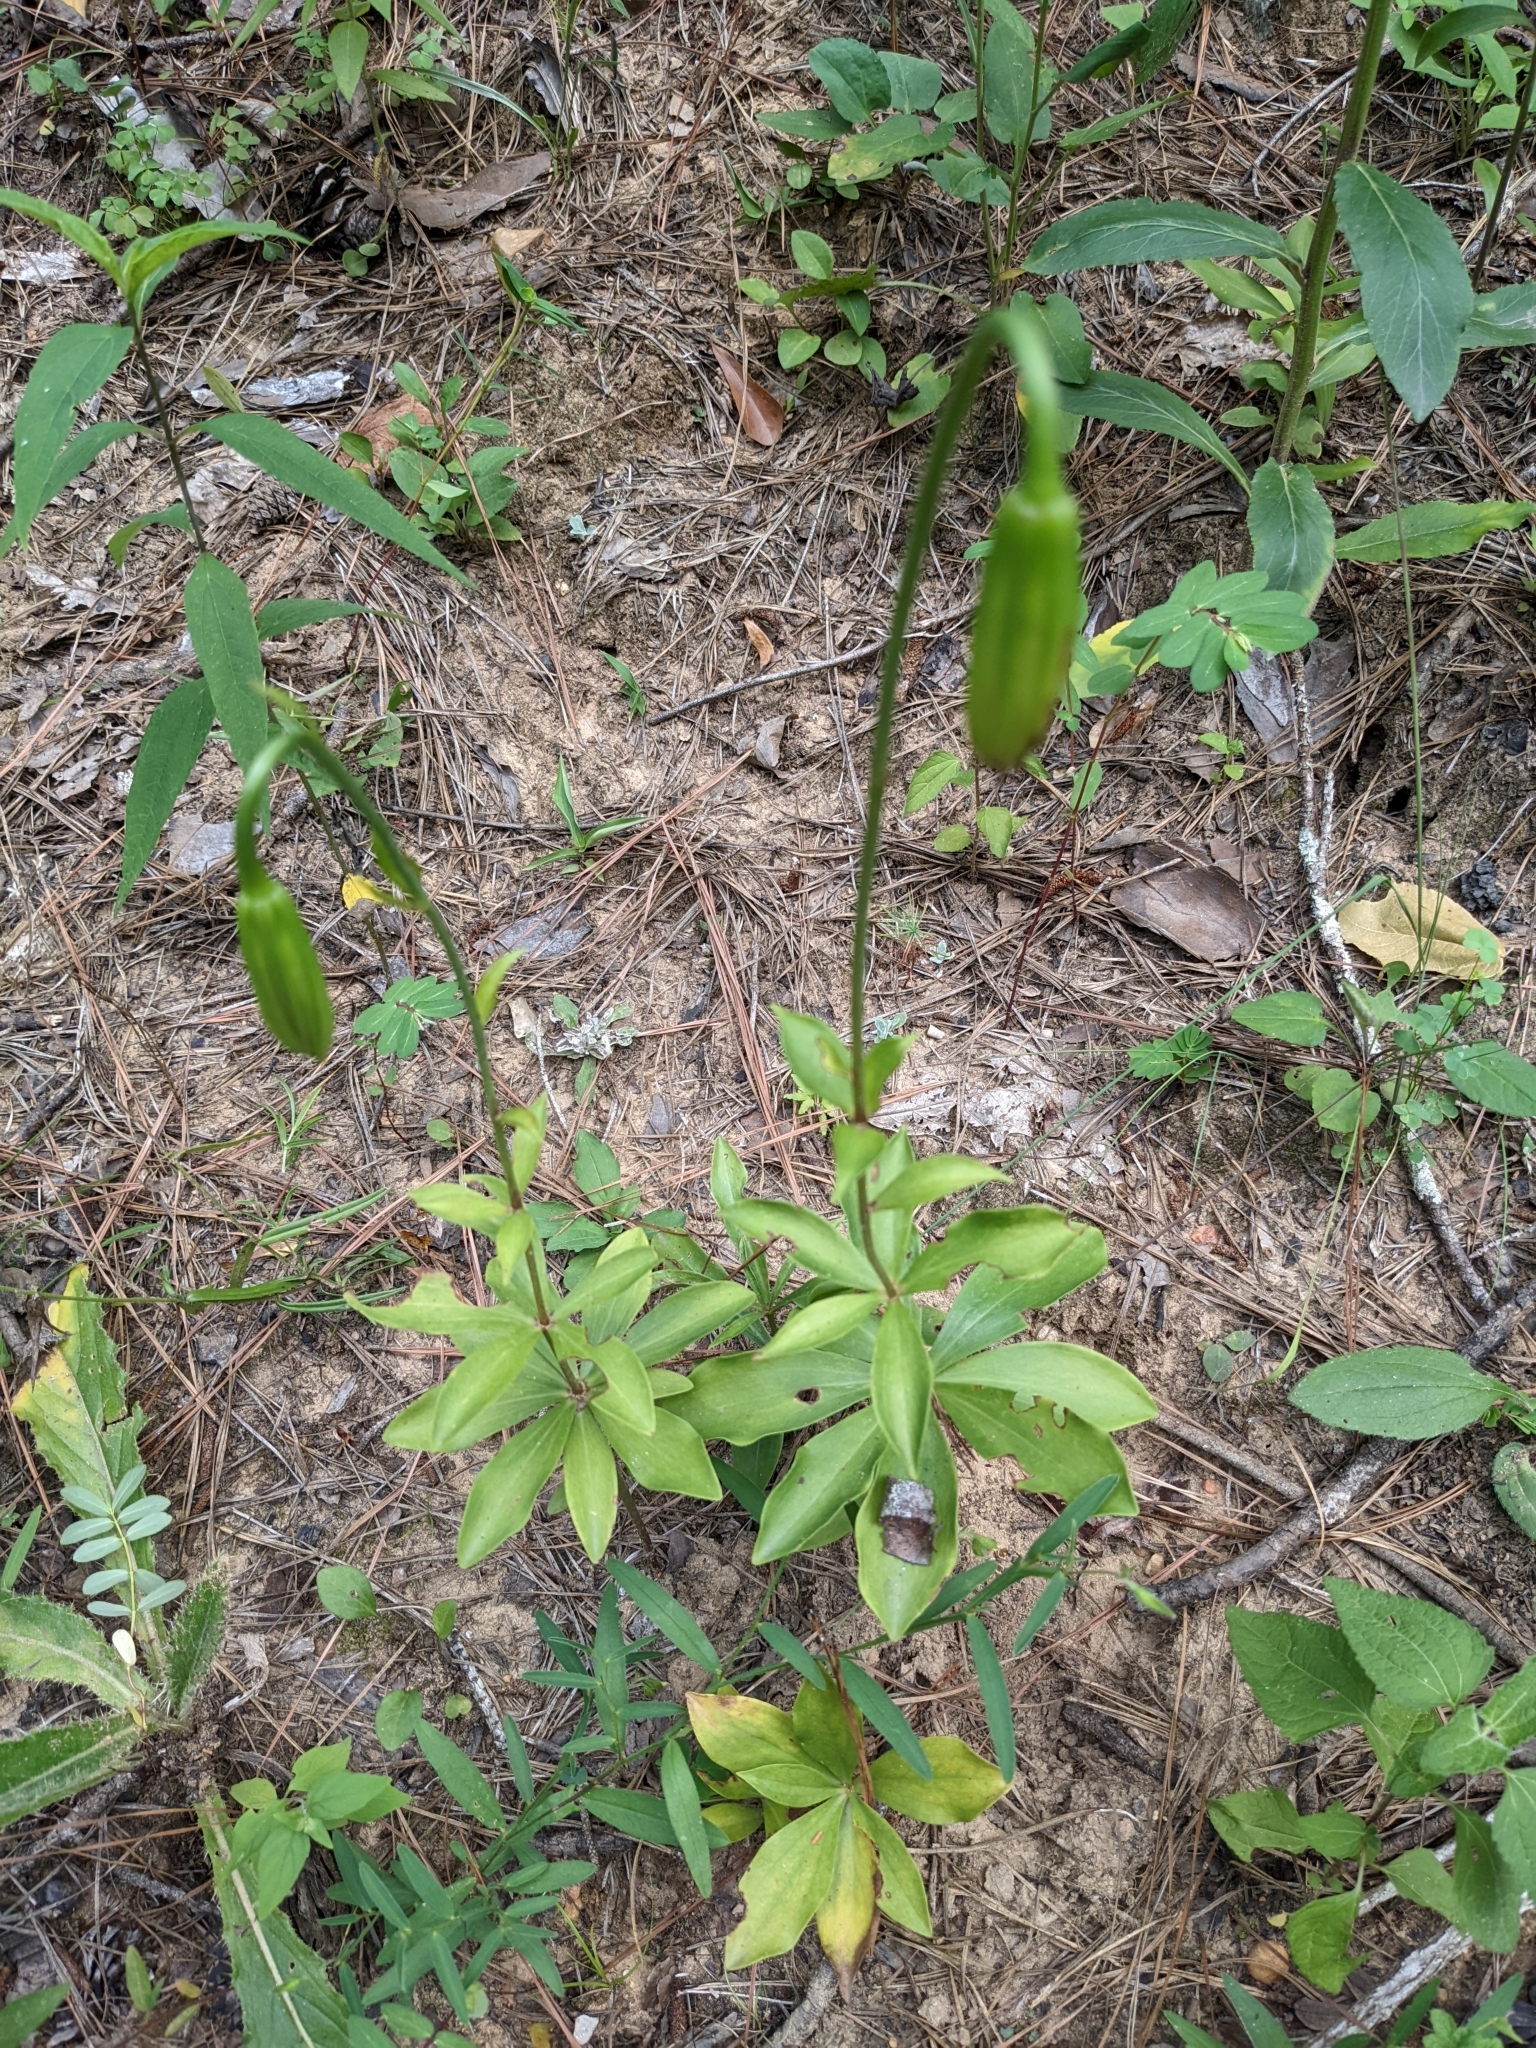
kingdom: Plantae
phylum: Tracheophyta
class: Liliopsida
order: Liliales
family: Liliaceae
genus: Lilium
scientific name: Lilium michauxii
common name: Carolina lily
